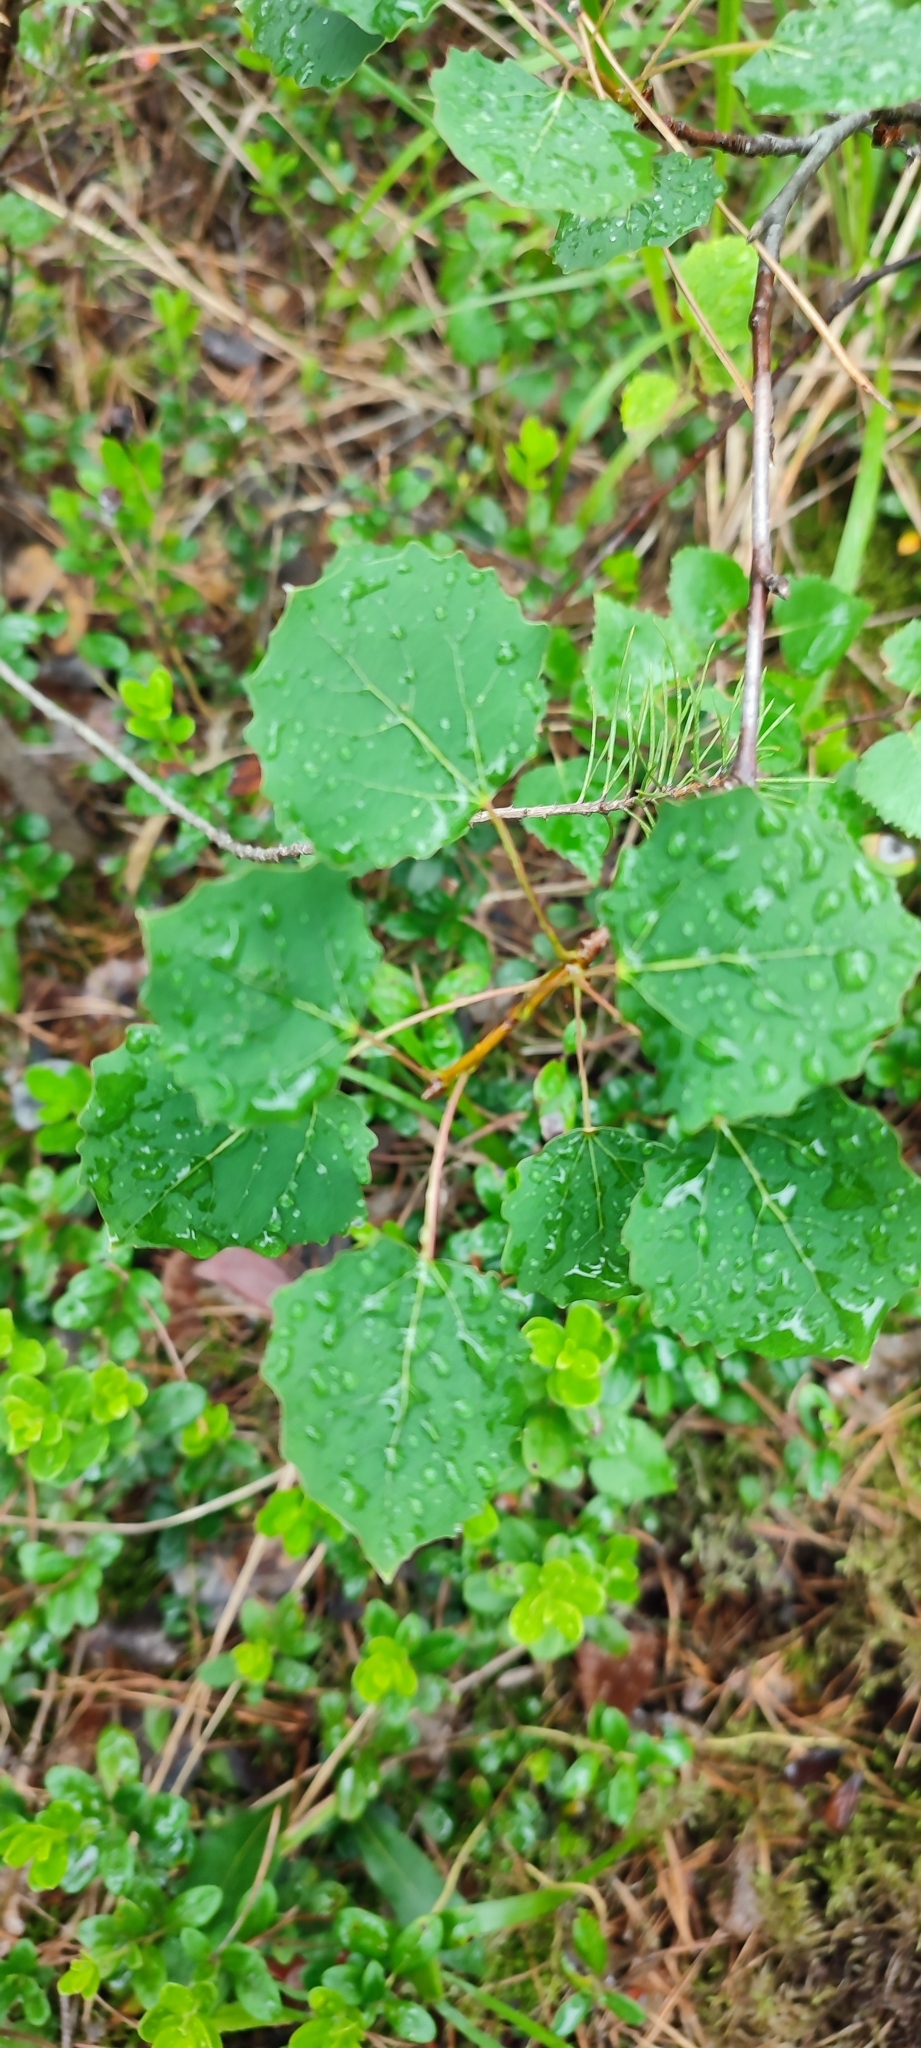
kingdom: Plantae
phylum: Tracheophyta
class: Magnoliopsida
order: Malpighiales
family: Salicaceae
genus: Populus
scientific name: Populus tremula
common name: European aspen
